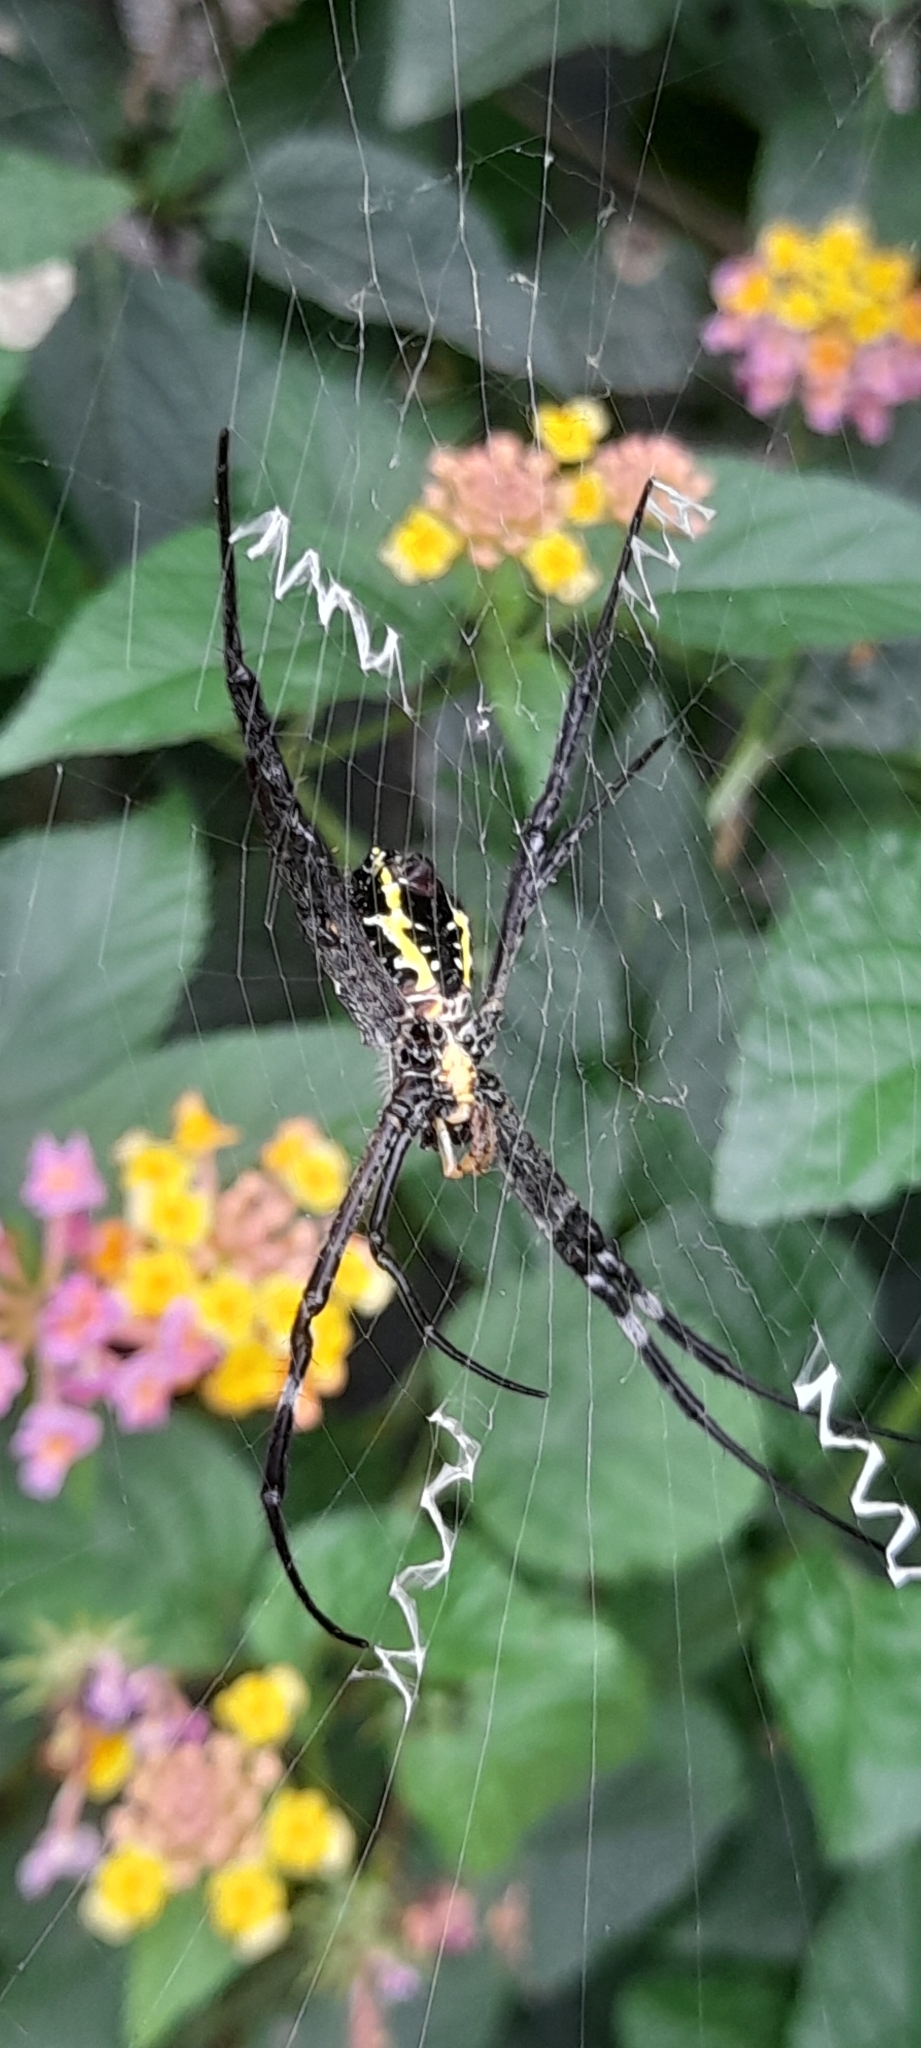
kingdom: Animalia
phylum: Arthropoda
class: Arachnida
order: Araneae
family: Araneidae
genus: Argiope
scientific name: Argiope taprobanica
